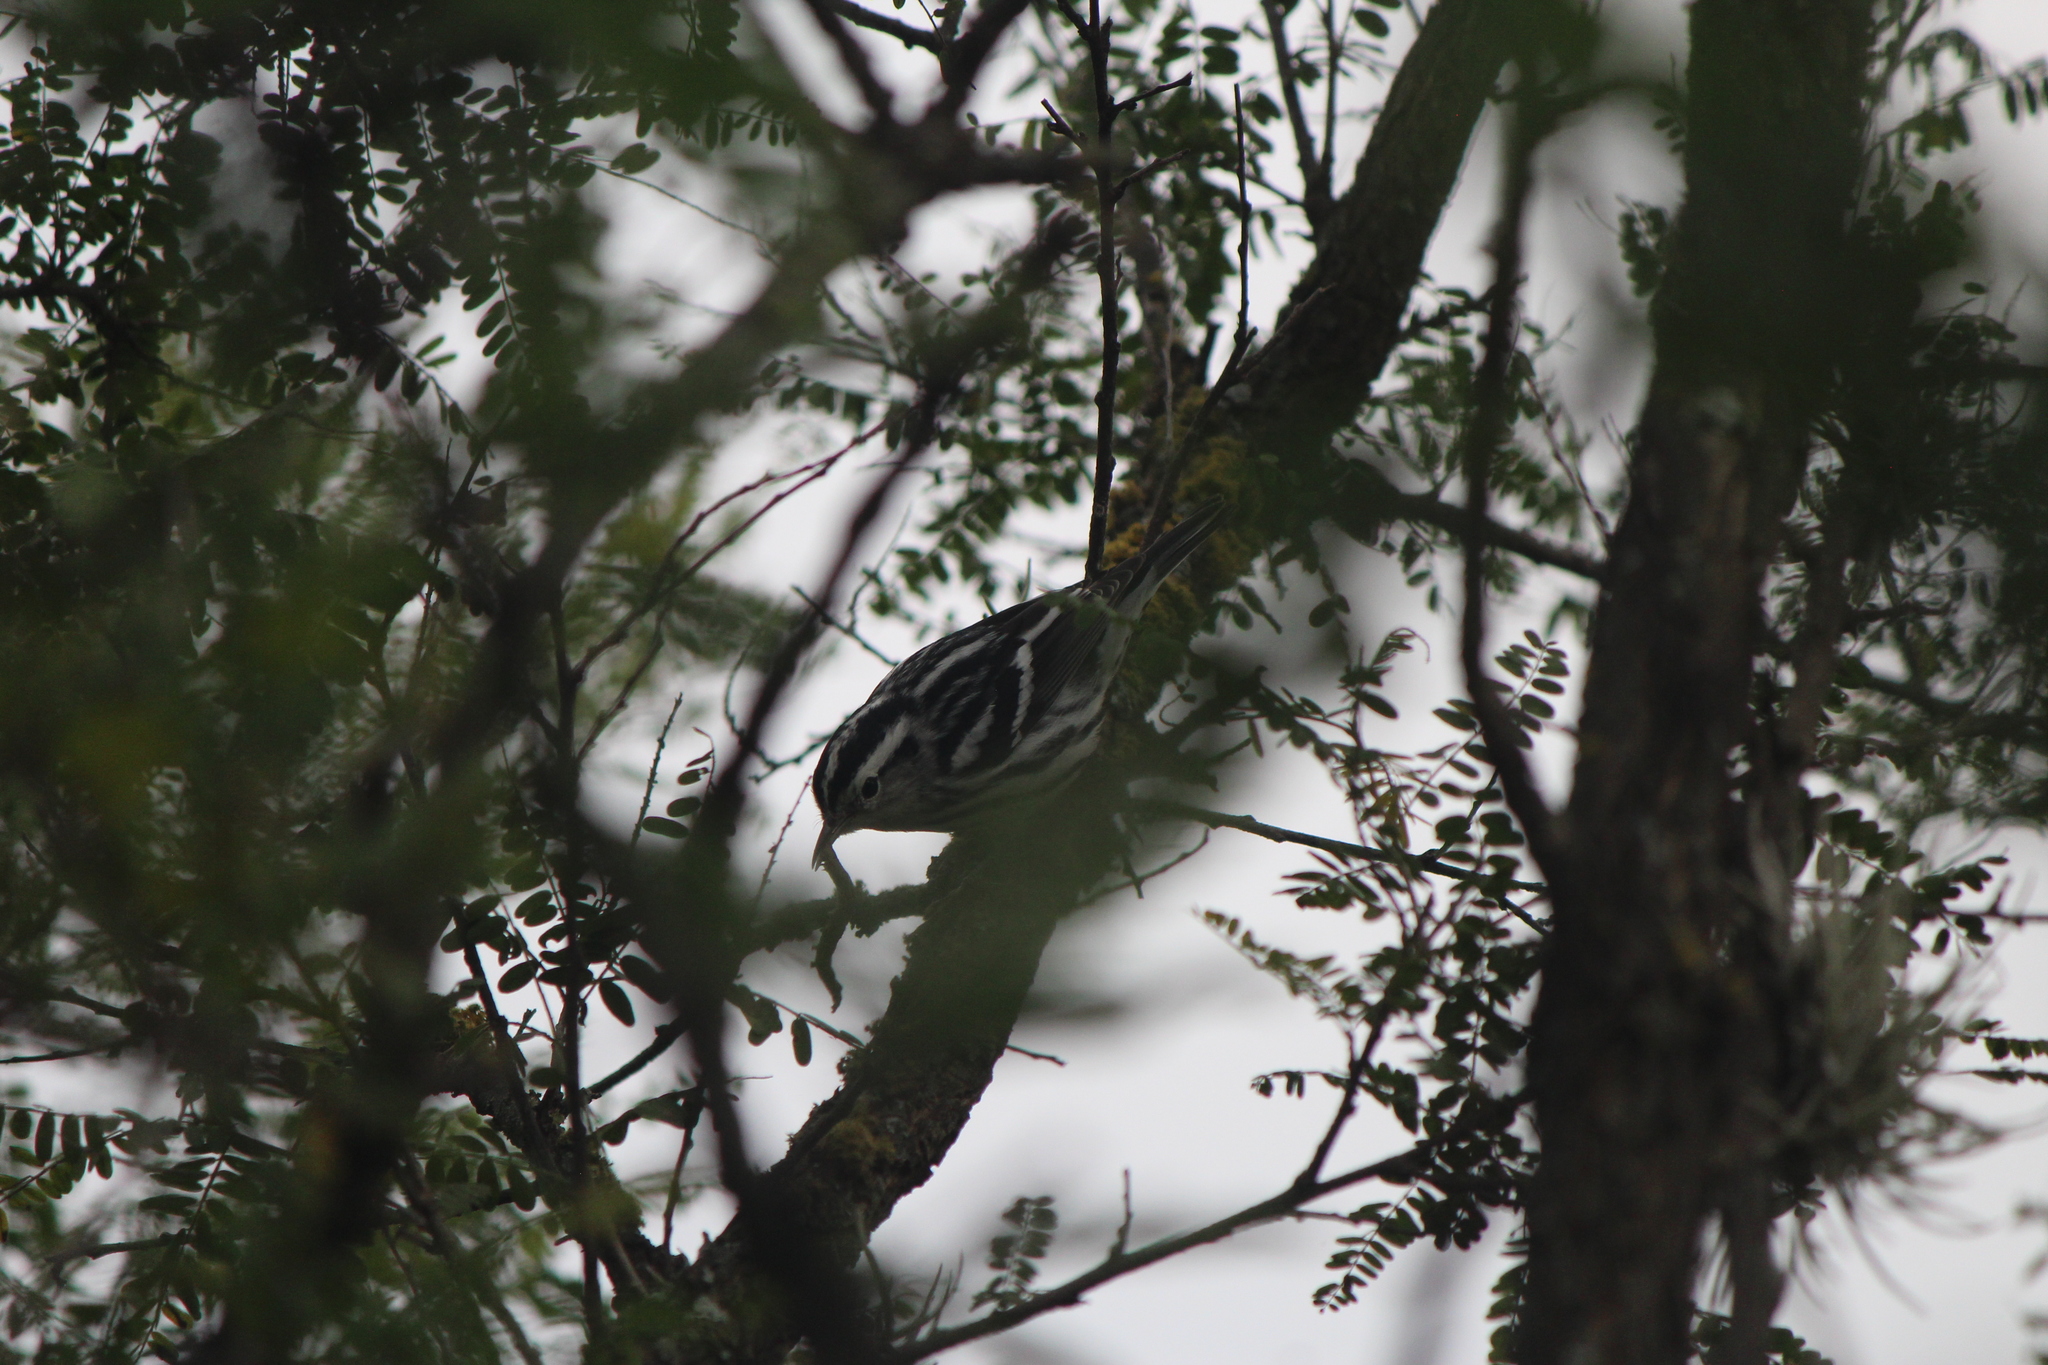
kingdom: Animalia
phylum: Chordata
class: Aves
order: Passeriformes
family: Parulidae
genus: Mniotilta
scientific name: Mniotilta varia
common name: Black-and-white warbler
